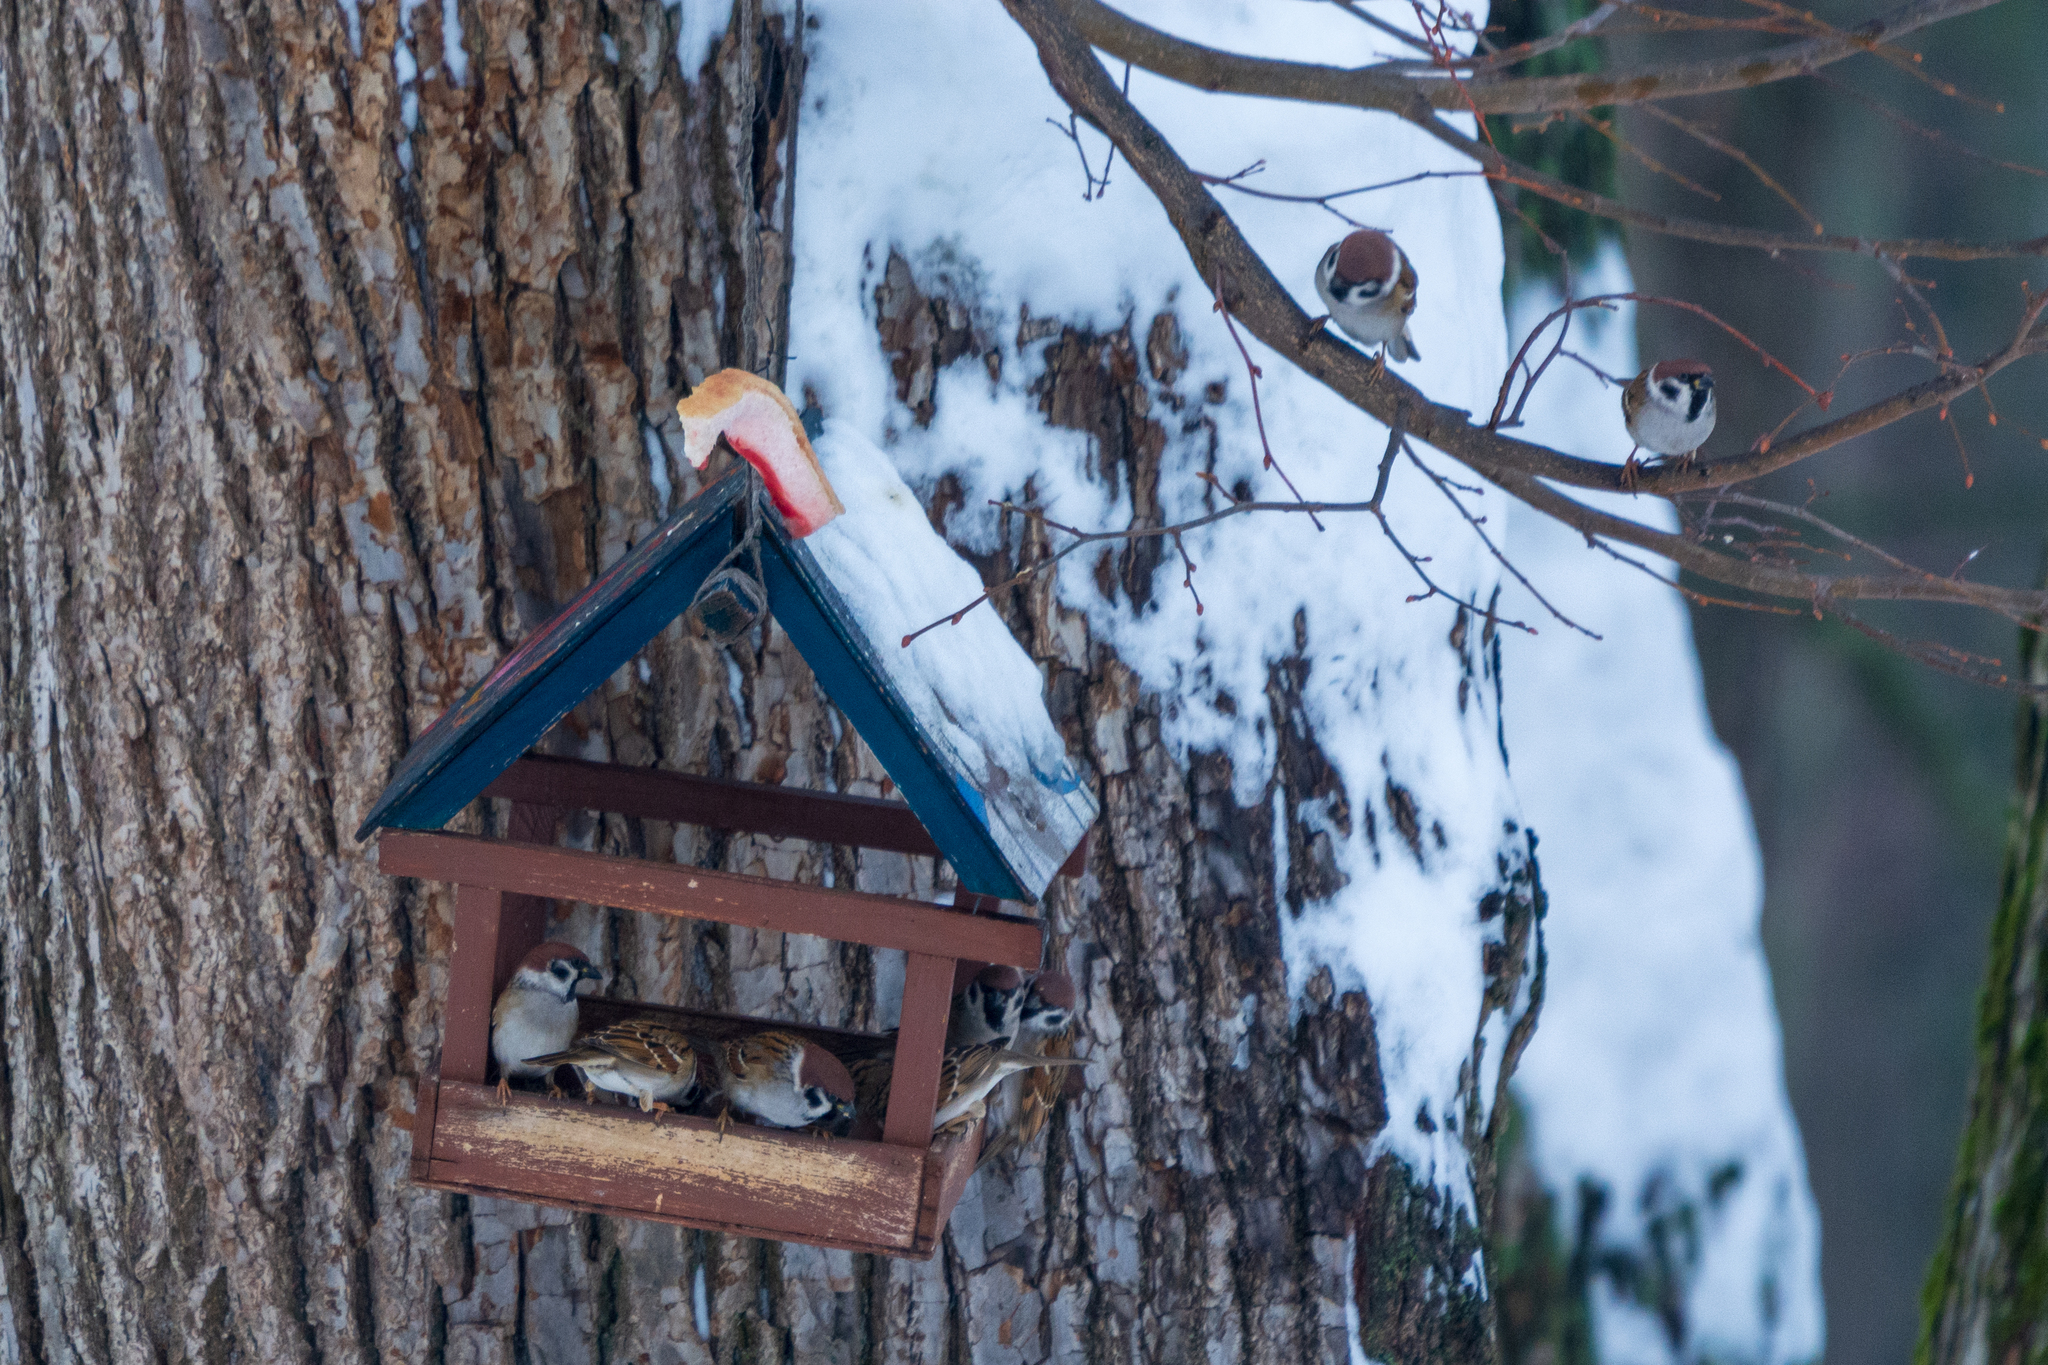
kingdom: Animalia
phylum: Chordata
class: Aves
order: Passeriformes
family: Passeridae
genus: Passer
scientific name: Passer montanus
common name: Eurasian tree sparrow
